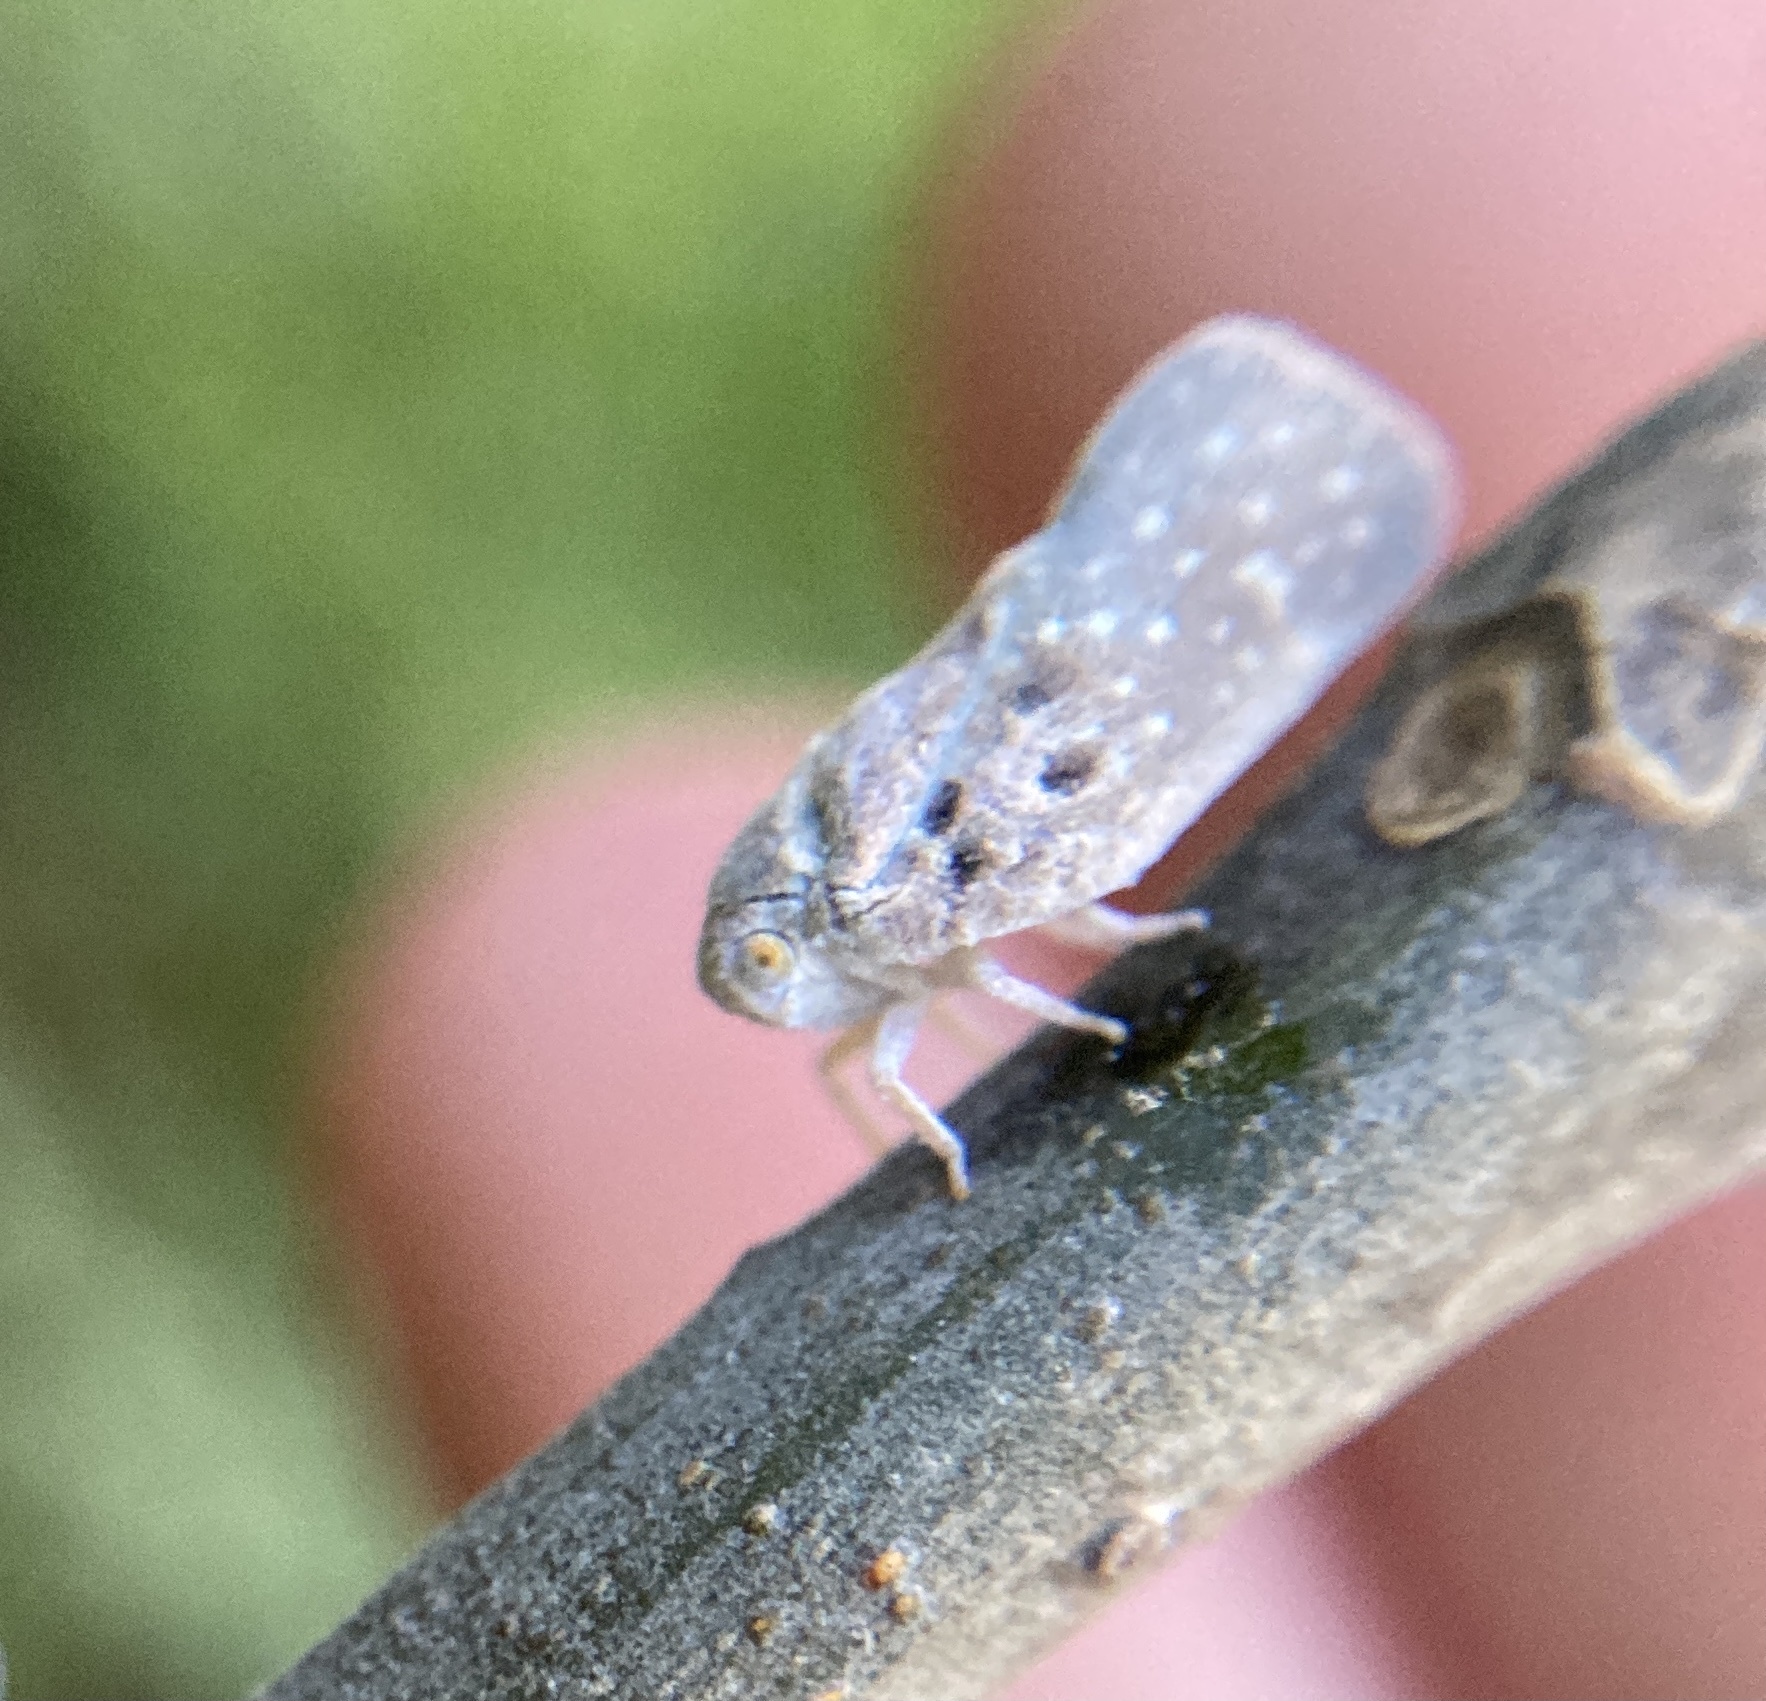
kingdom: Animalia
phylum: Arthropoda
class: Insecta
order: Hemiptera
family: Flatidae
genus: Metcalfa
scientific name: Metcalfa pruinosa
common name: Citrus flatid planthopper
